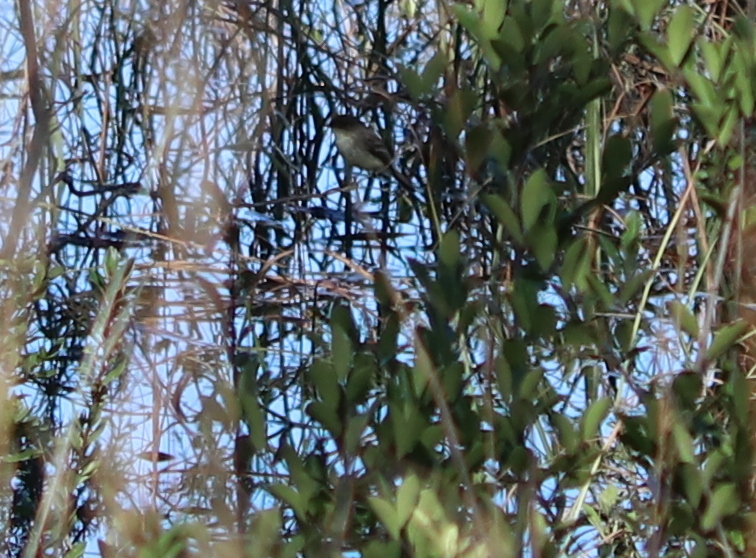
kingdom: Animalia
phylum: Chordata
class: Aves
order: Passeriformes
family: Tyrannidae
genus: Sayornis
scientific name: Sayornis phoebe
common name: Eastern phoebe
